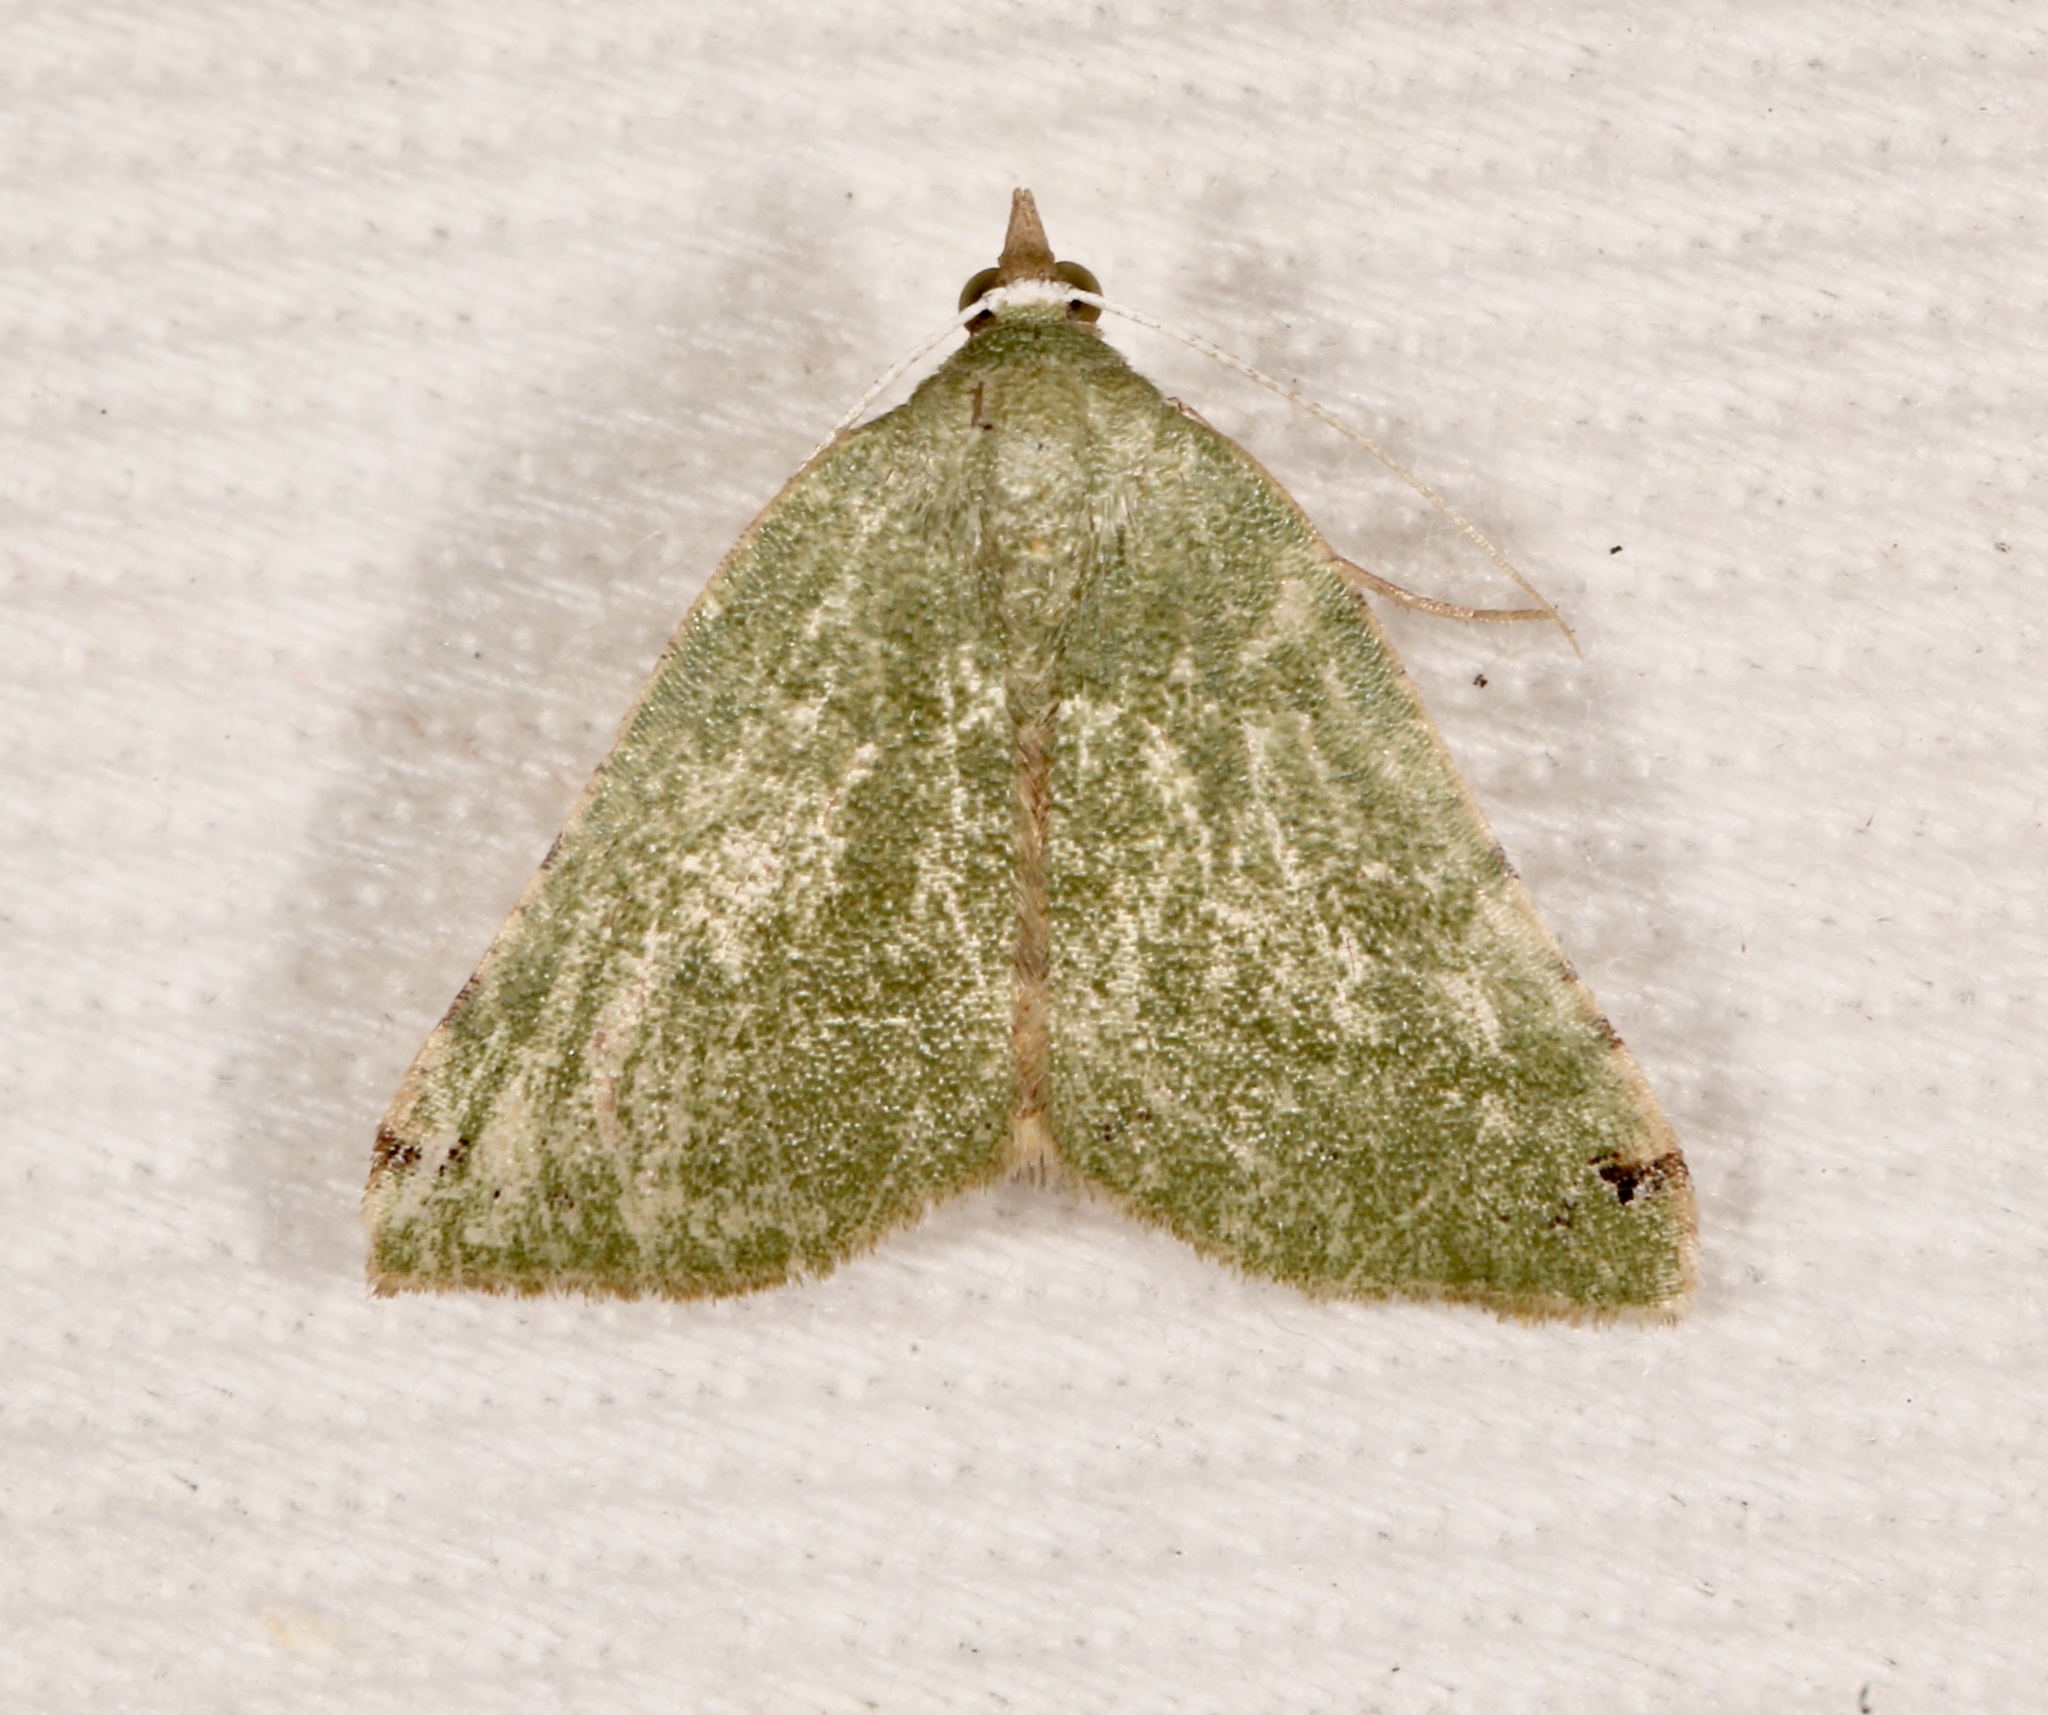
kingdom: Animalia
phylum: Arthropoda
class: Insecta
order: Lepidoptera
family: Geometridae
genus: Chloraspilates
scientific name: Chloraspilates bicoloraria
